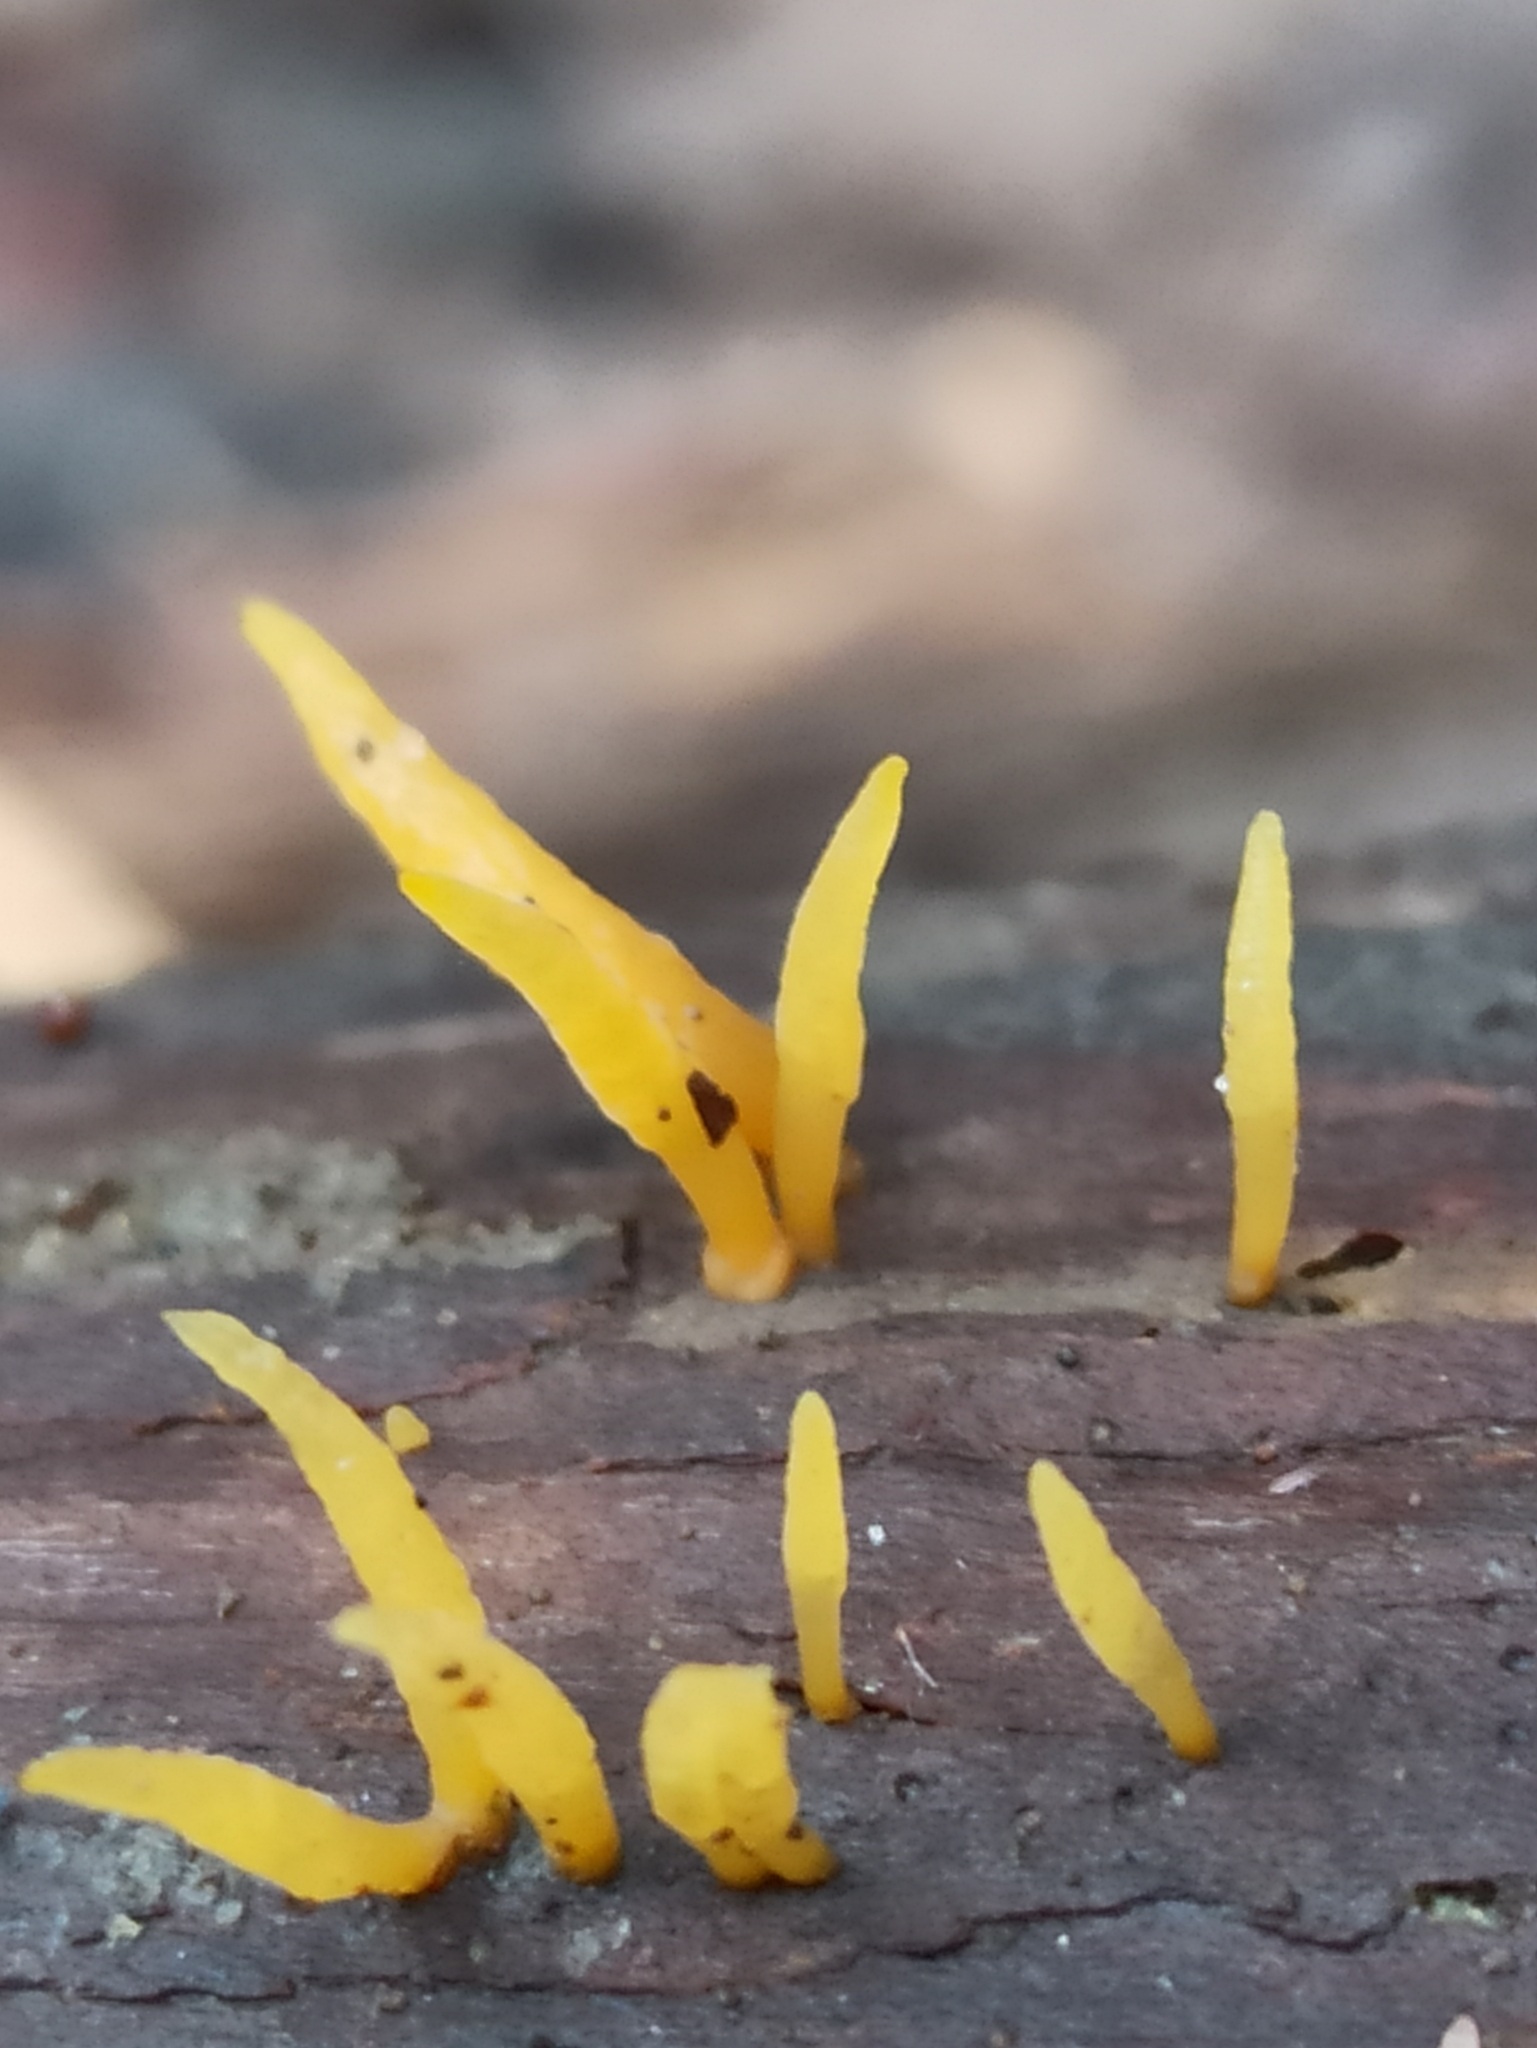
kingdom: Fungi
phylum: Basidiomycota
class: Dacrymycetes
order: Dacrymycetales
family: Dacrymycetaceae
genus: Calocera
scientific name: Calocera cornea
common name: Small stagshorn
